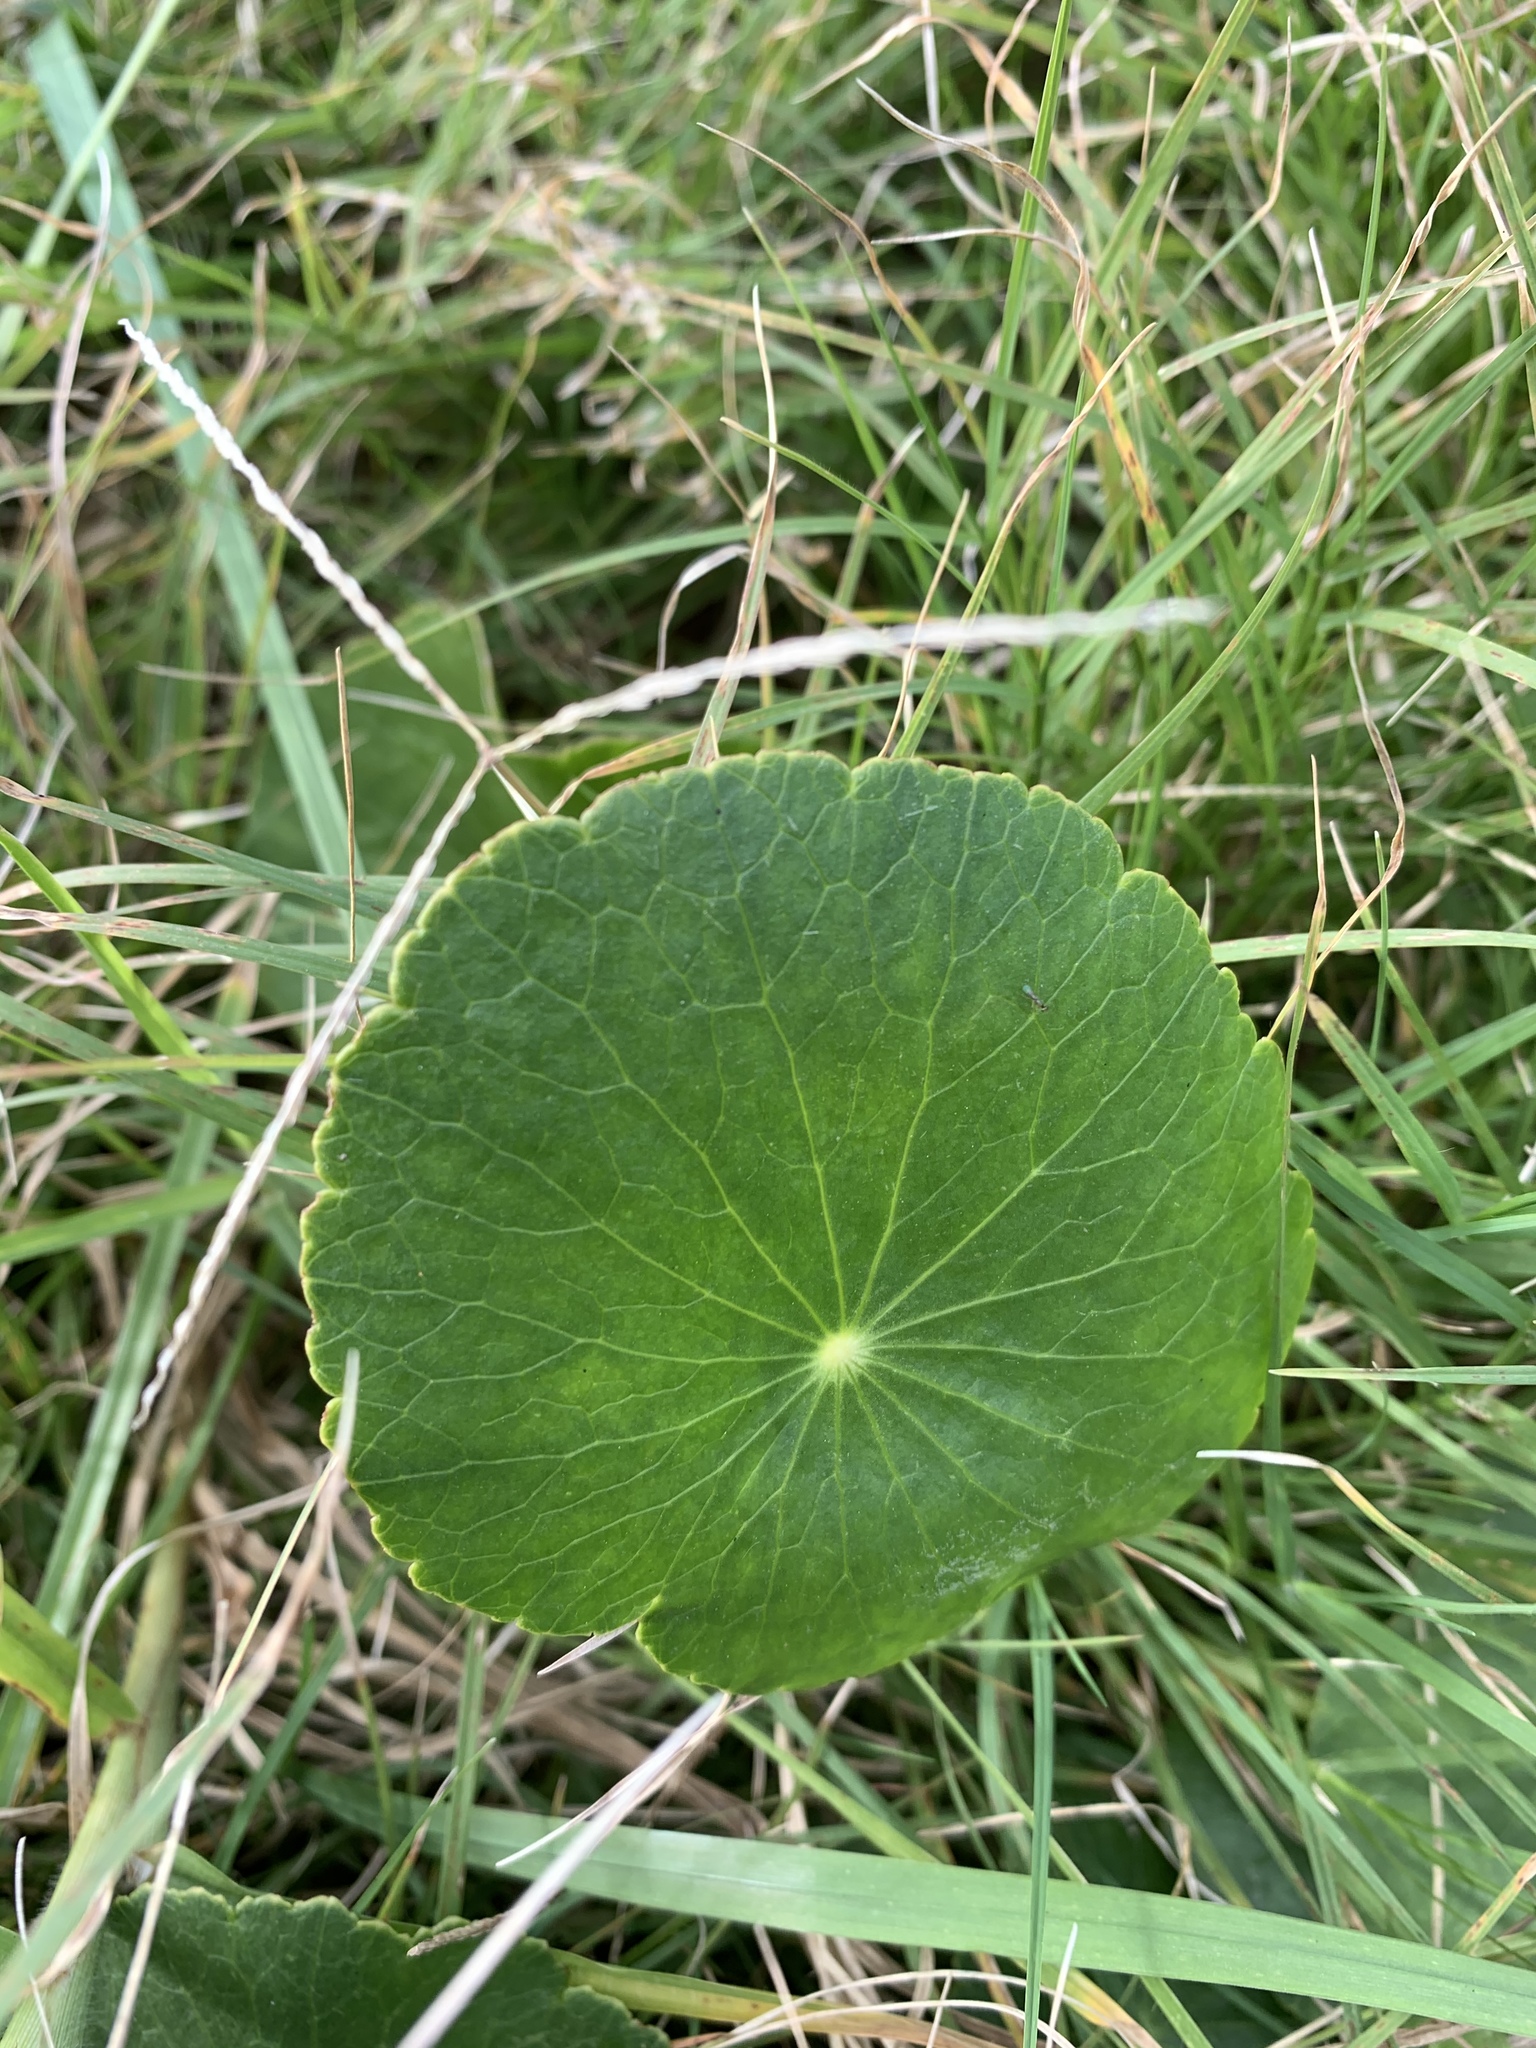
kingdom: Plantae
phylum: Tracheophyta
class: Magnoliopsida
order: Apiales
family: Araliaceae
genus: Hydrocotyle
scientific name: Hydrocotyle bonariensis
